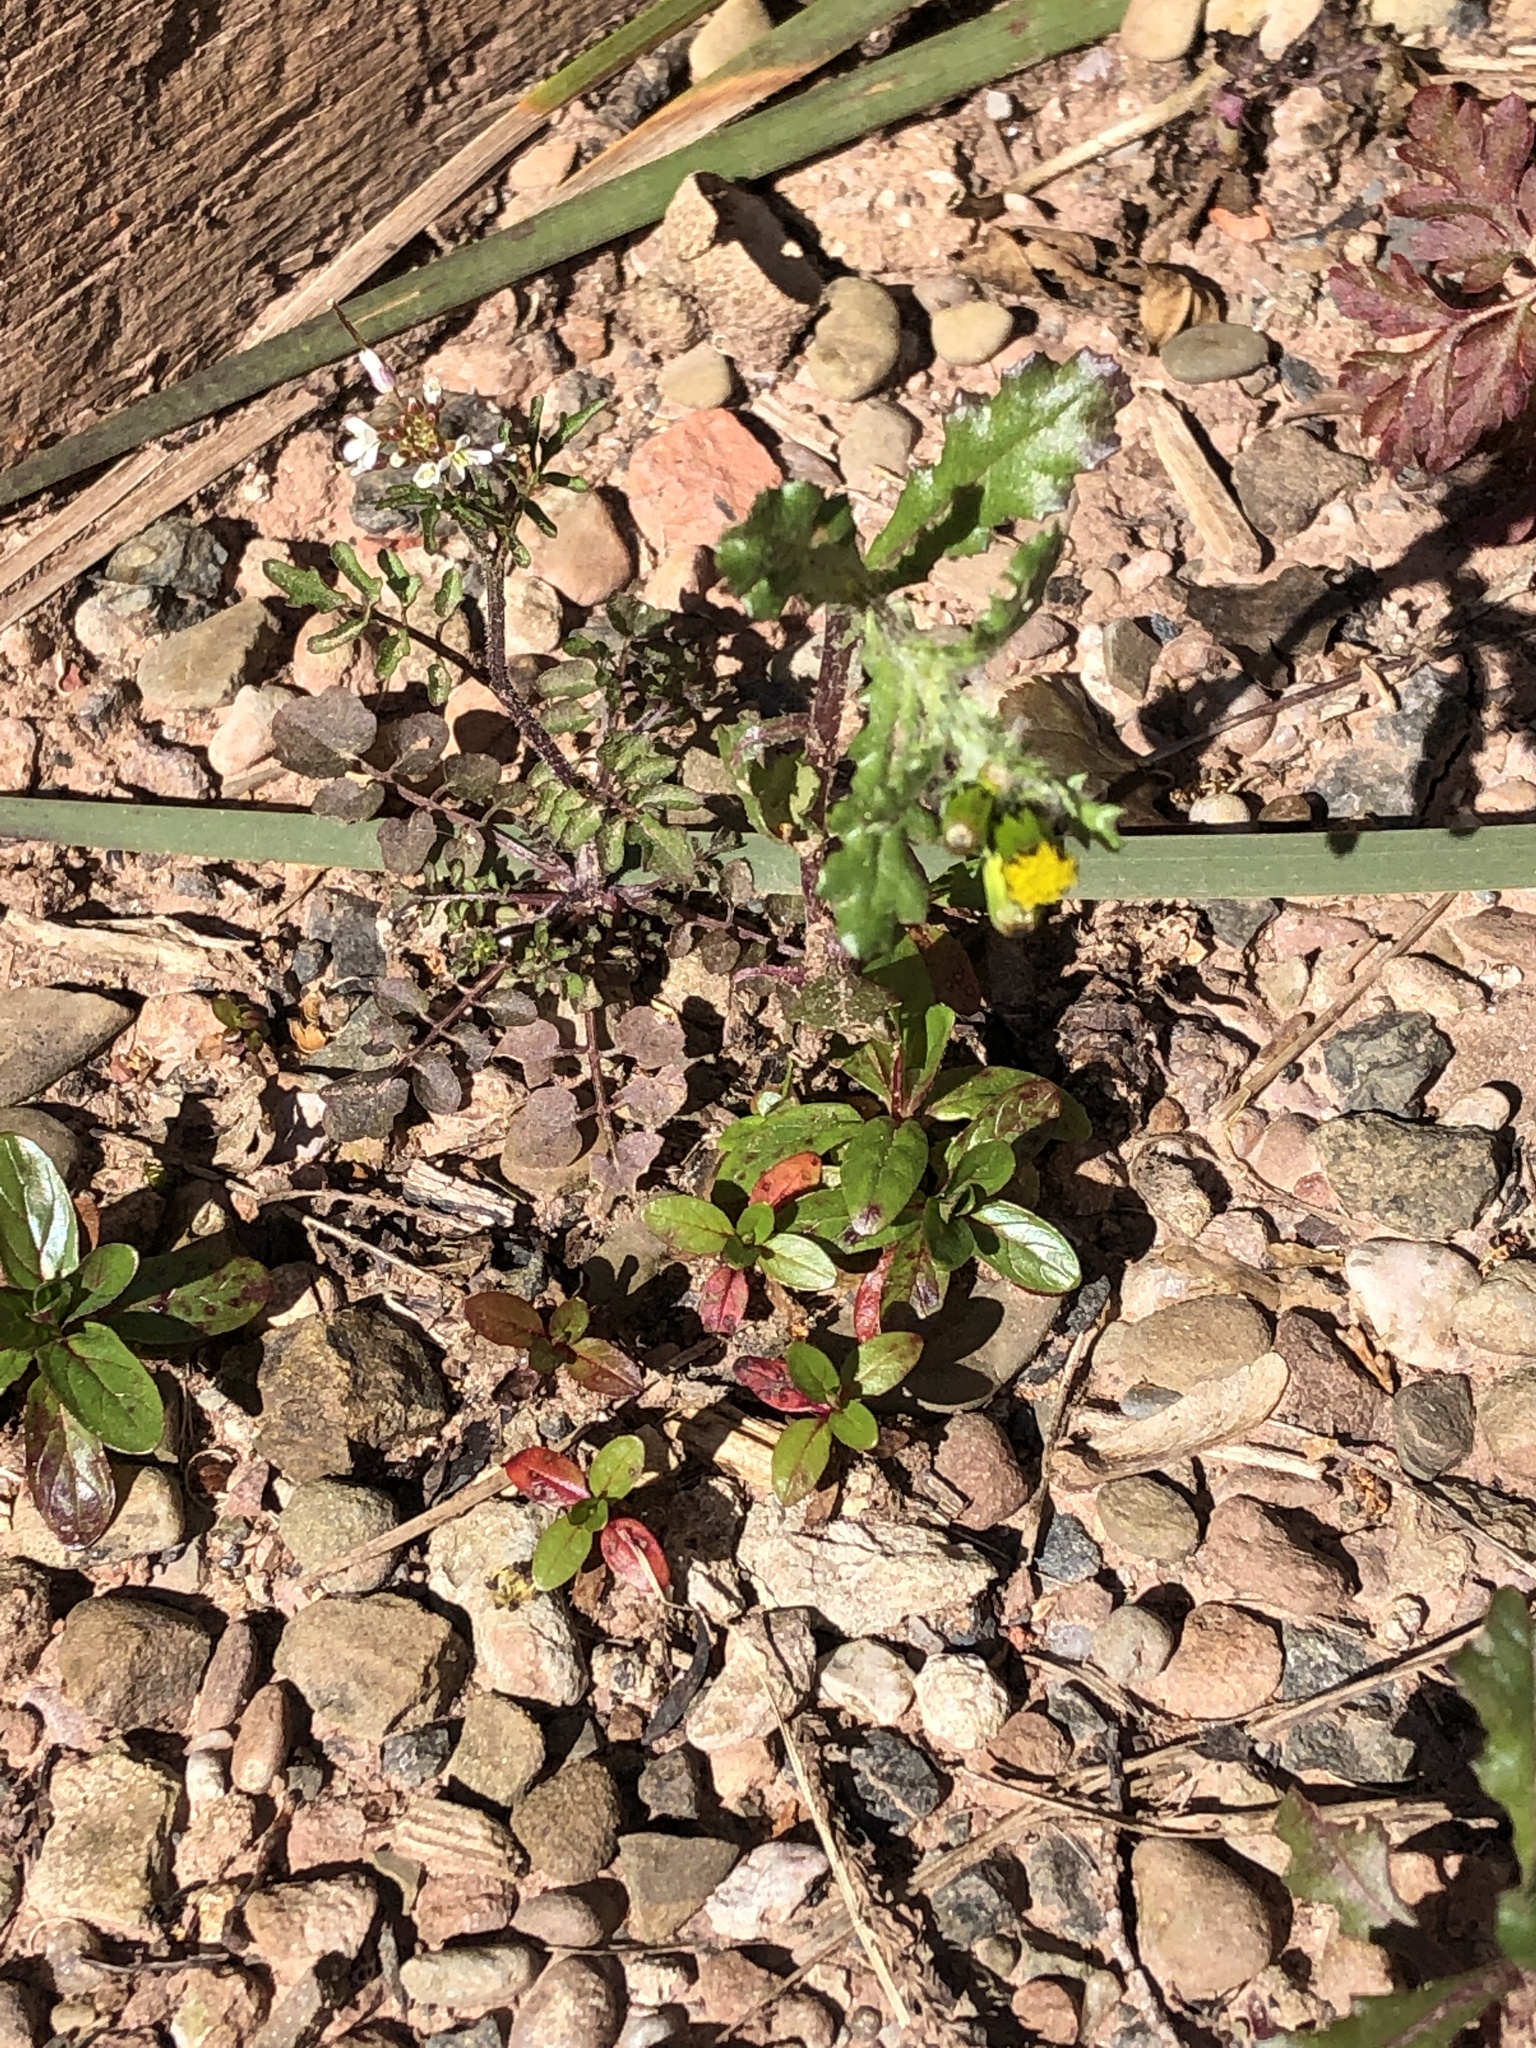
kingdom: Plantae
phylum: Tracheophyta
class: Magnoliopsida
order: Asterales
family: Asteraceae
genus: Senecio
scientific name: Senecio vulgaris
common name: Old-man-in-the-spring
